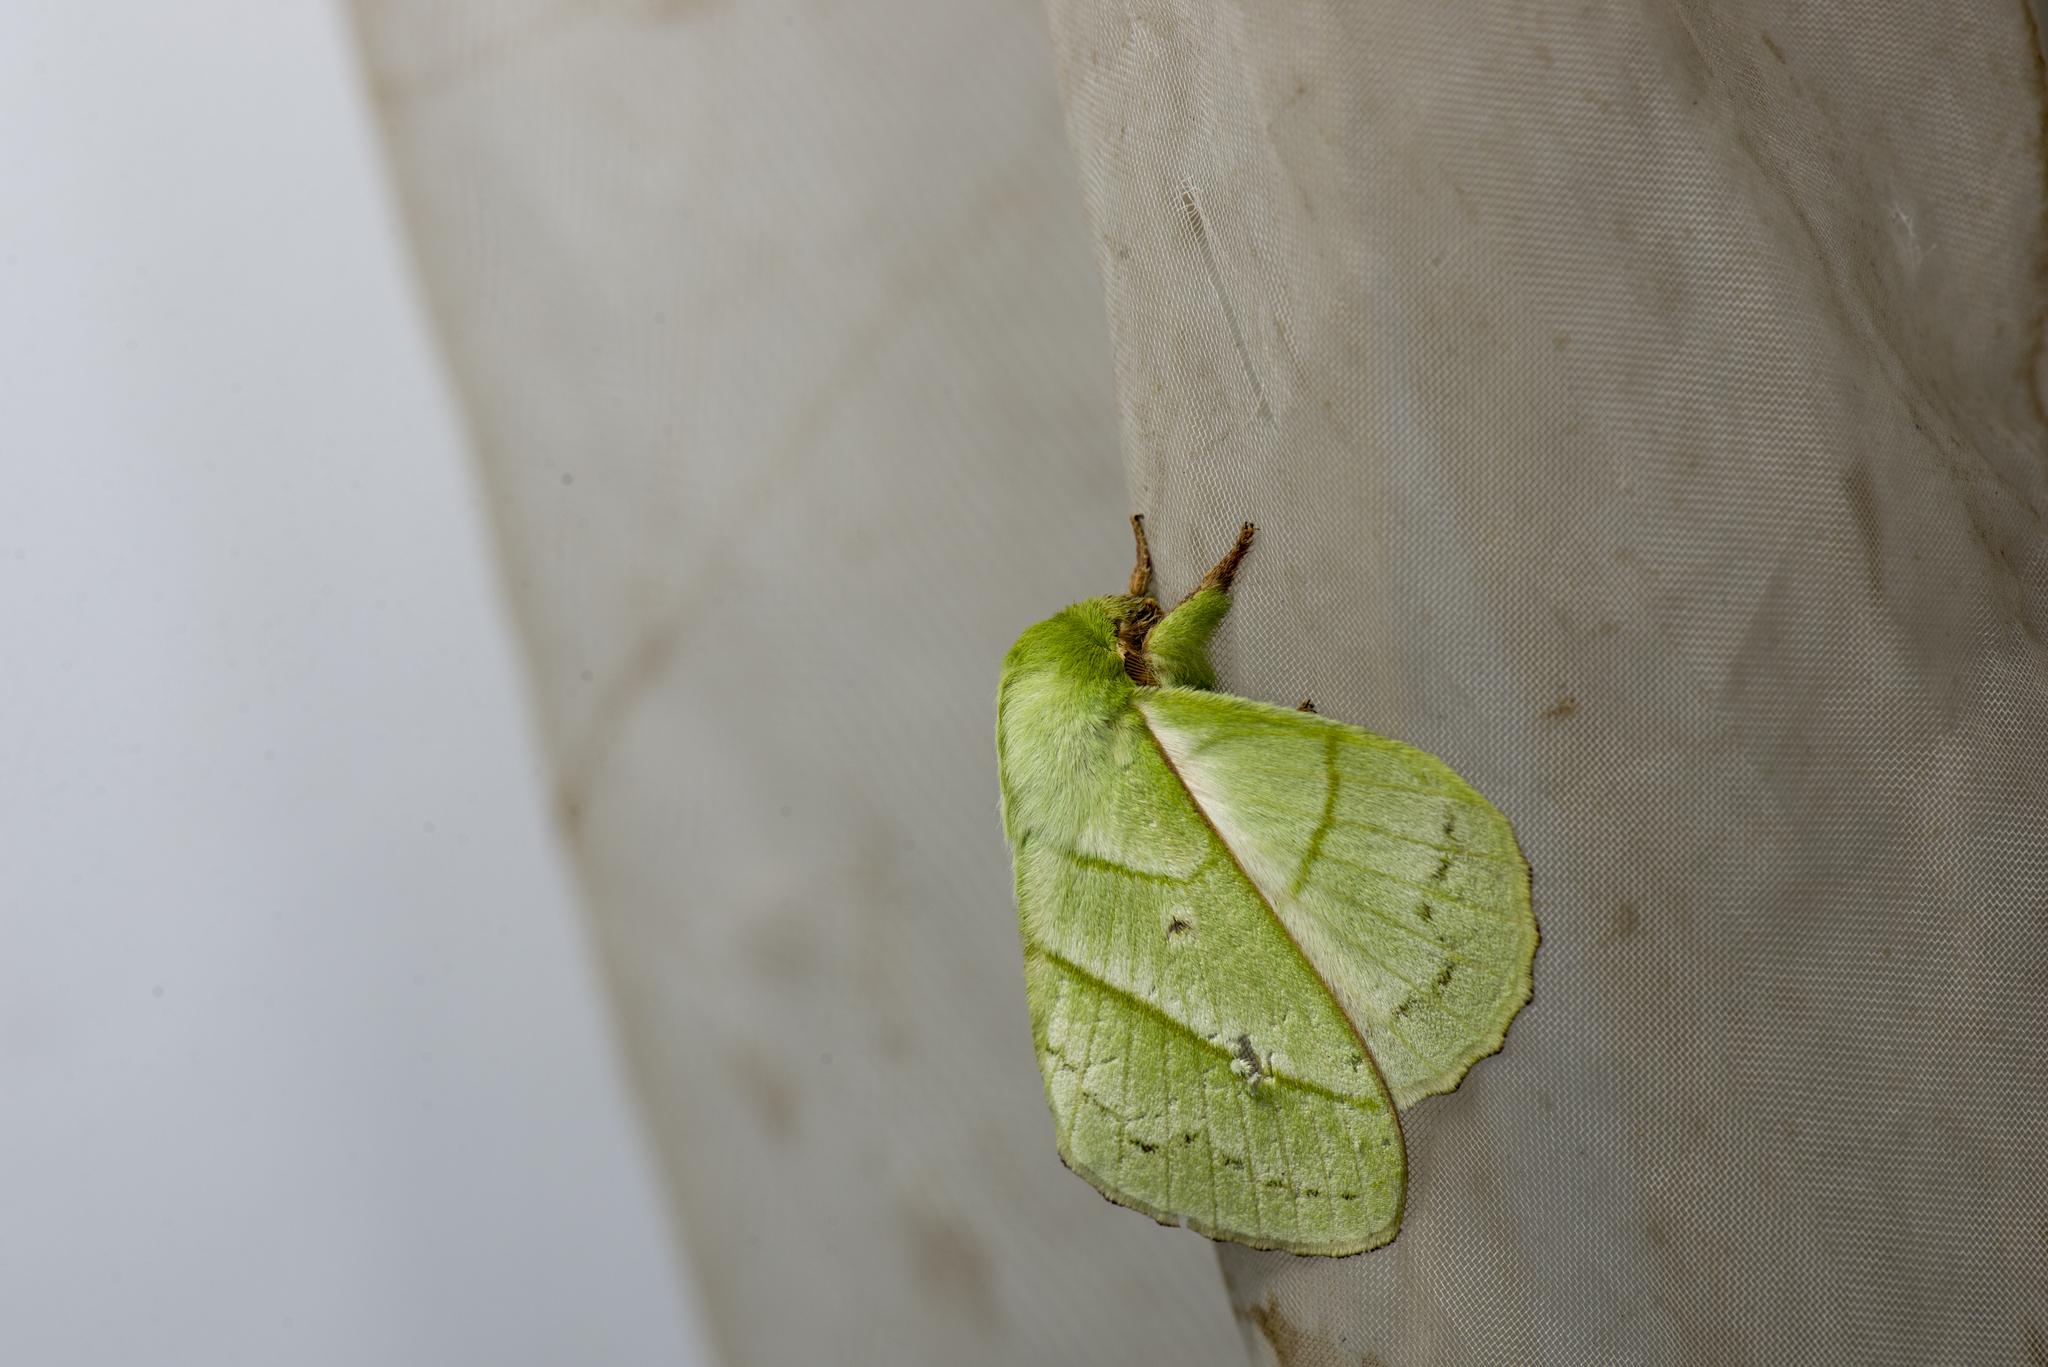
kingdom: Animalia
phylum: Arthropoda
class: Insecta
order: Lepidoptera
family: Lasiocampidae
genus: Trabala
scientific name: Trabala vishnou
